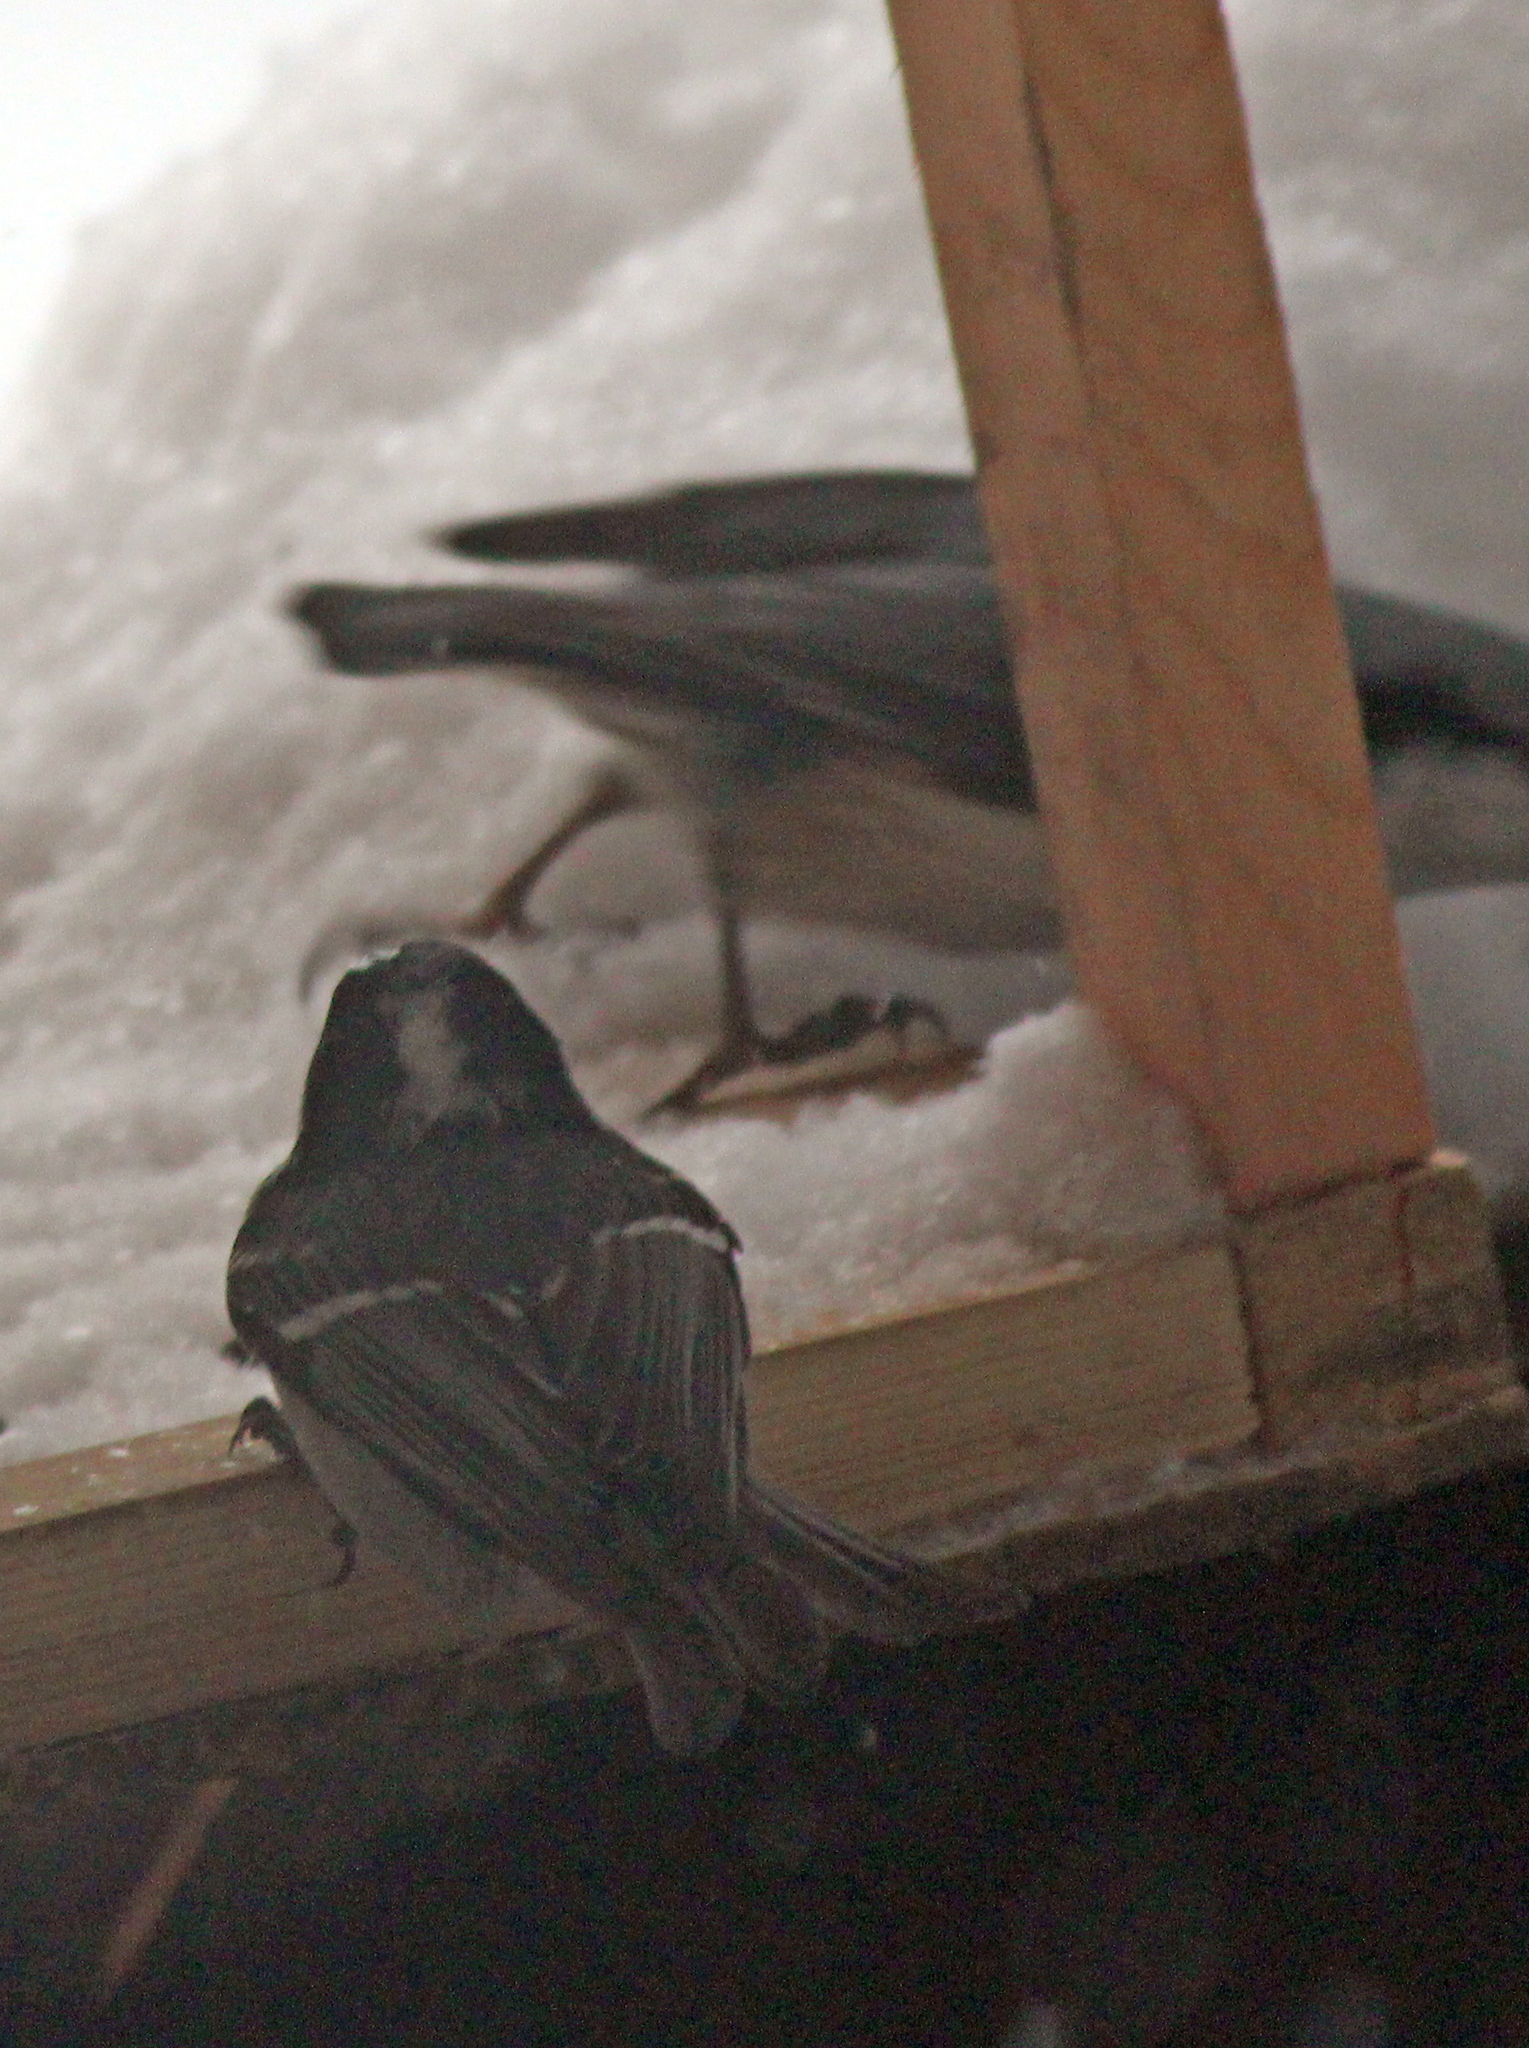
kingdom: Animalia
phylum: Chordata
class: Aves
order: Passeriformes
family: Paridae
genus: Periparus
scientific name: Periparus ater
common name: Coal tit
